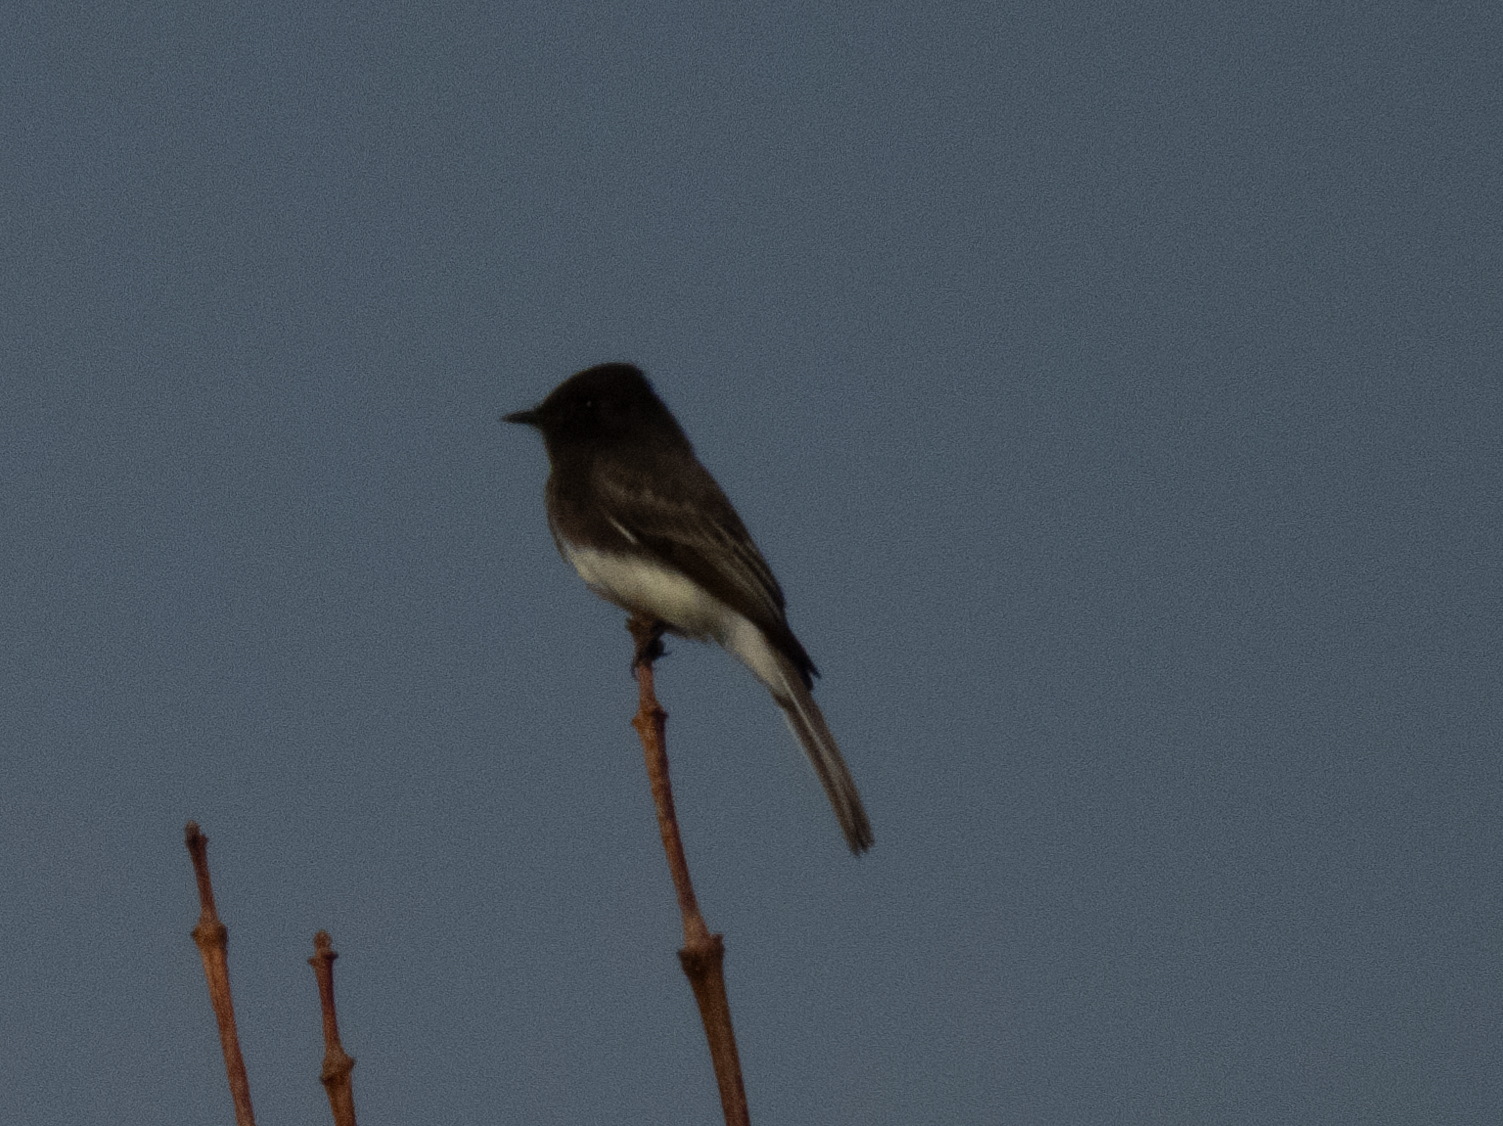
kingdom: Animalia
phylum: Chordata
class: Aves
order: Passeriformes
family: Tyrannidae
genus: Sayornis
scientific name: Sayornis nigricans
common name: Black phoebe
